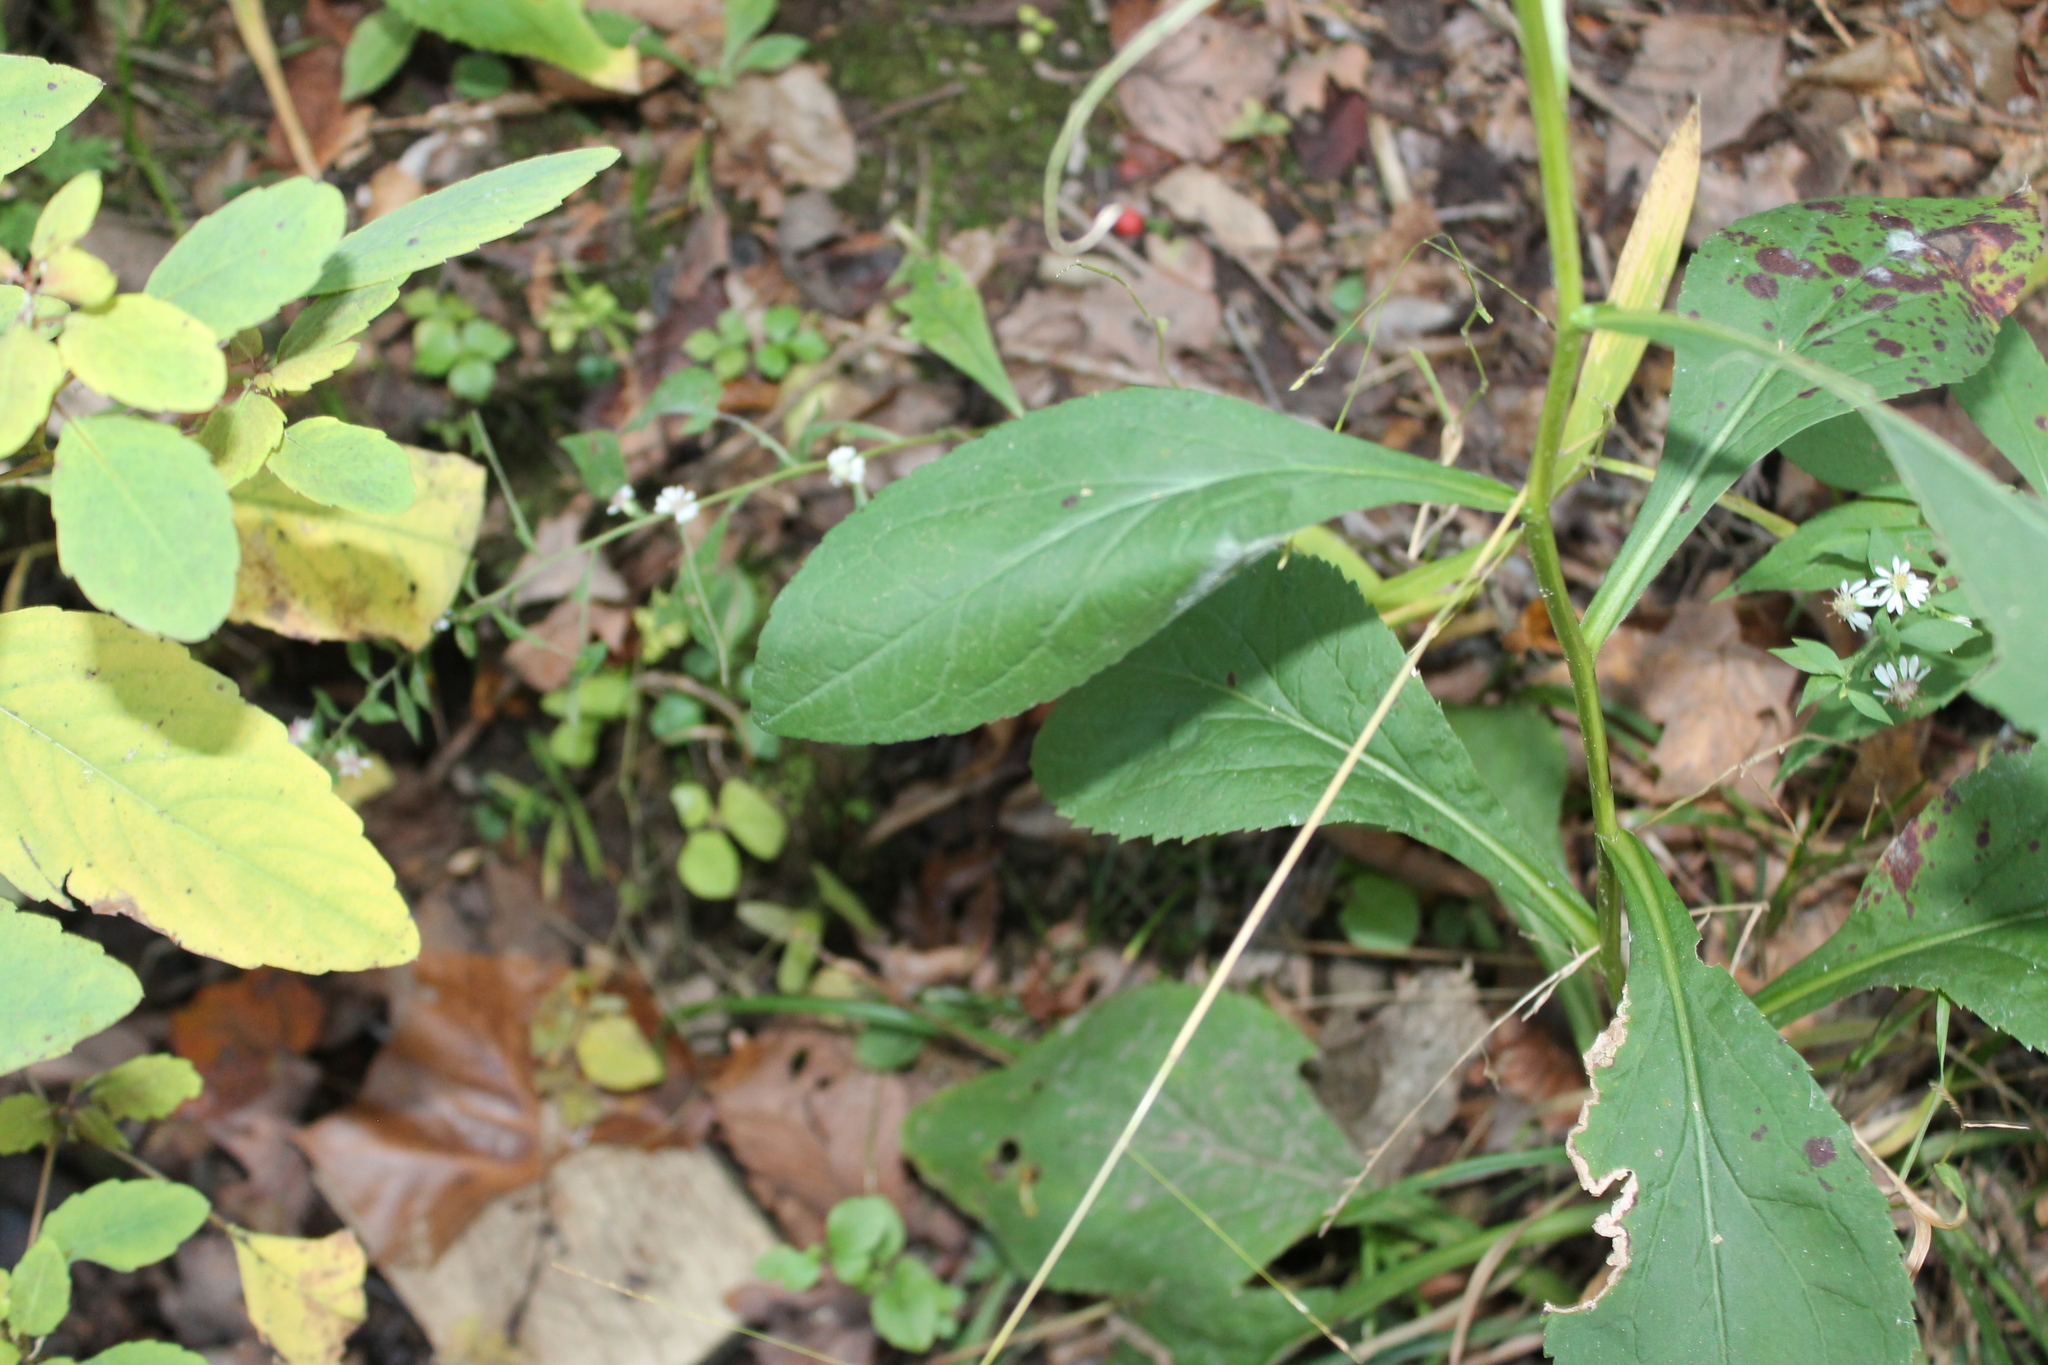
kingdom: Plantae
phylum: Tracheophyta
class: Magnoliopsida
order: Asterales
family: Asteraceae
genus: Solidago
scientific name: Solidago patula
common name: Rough-leaf goldenrod
